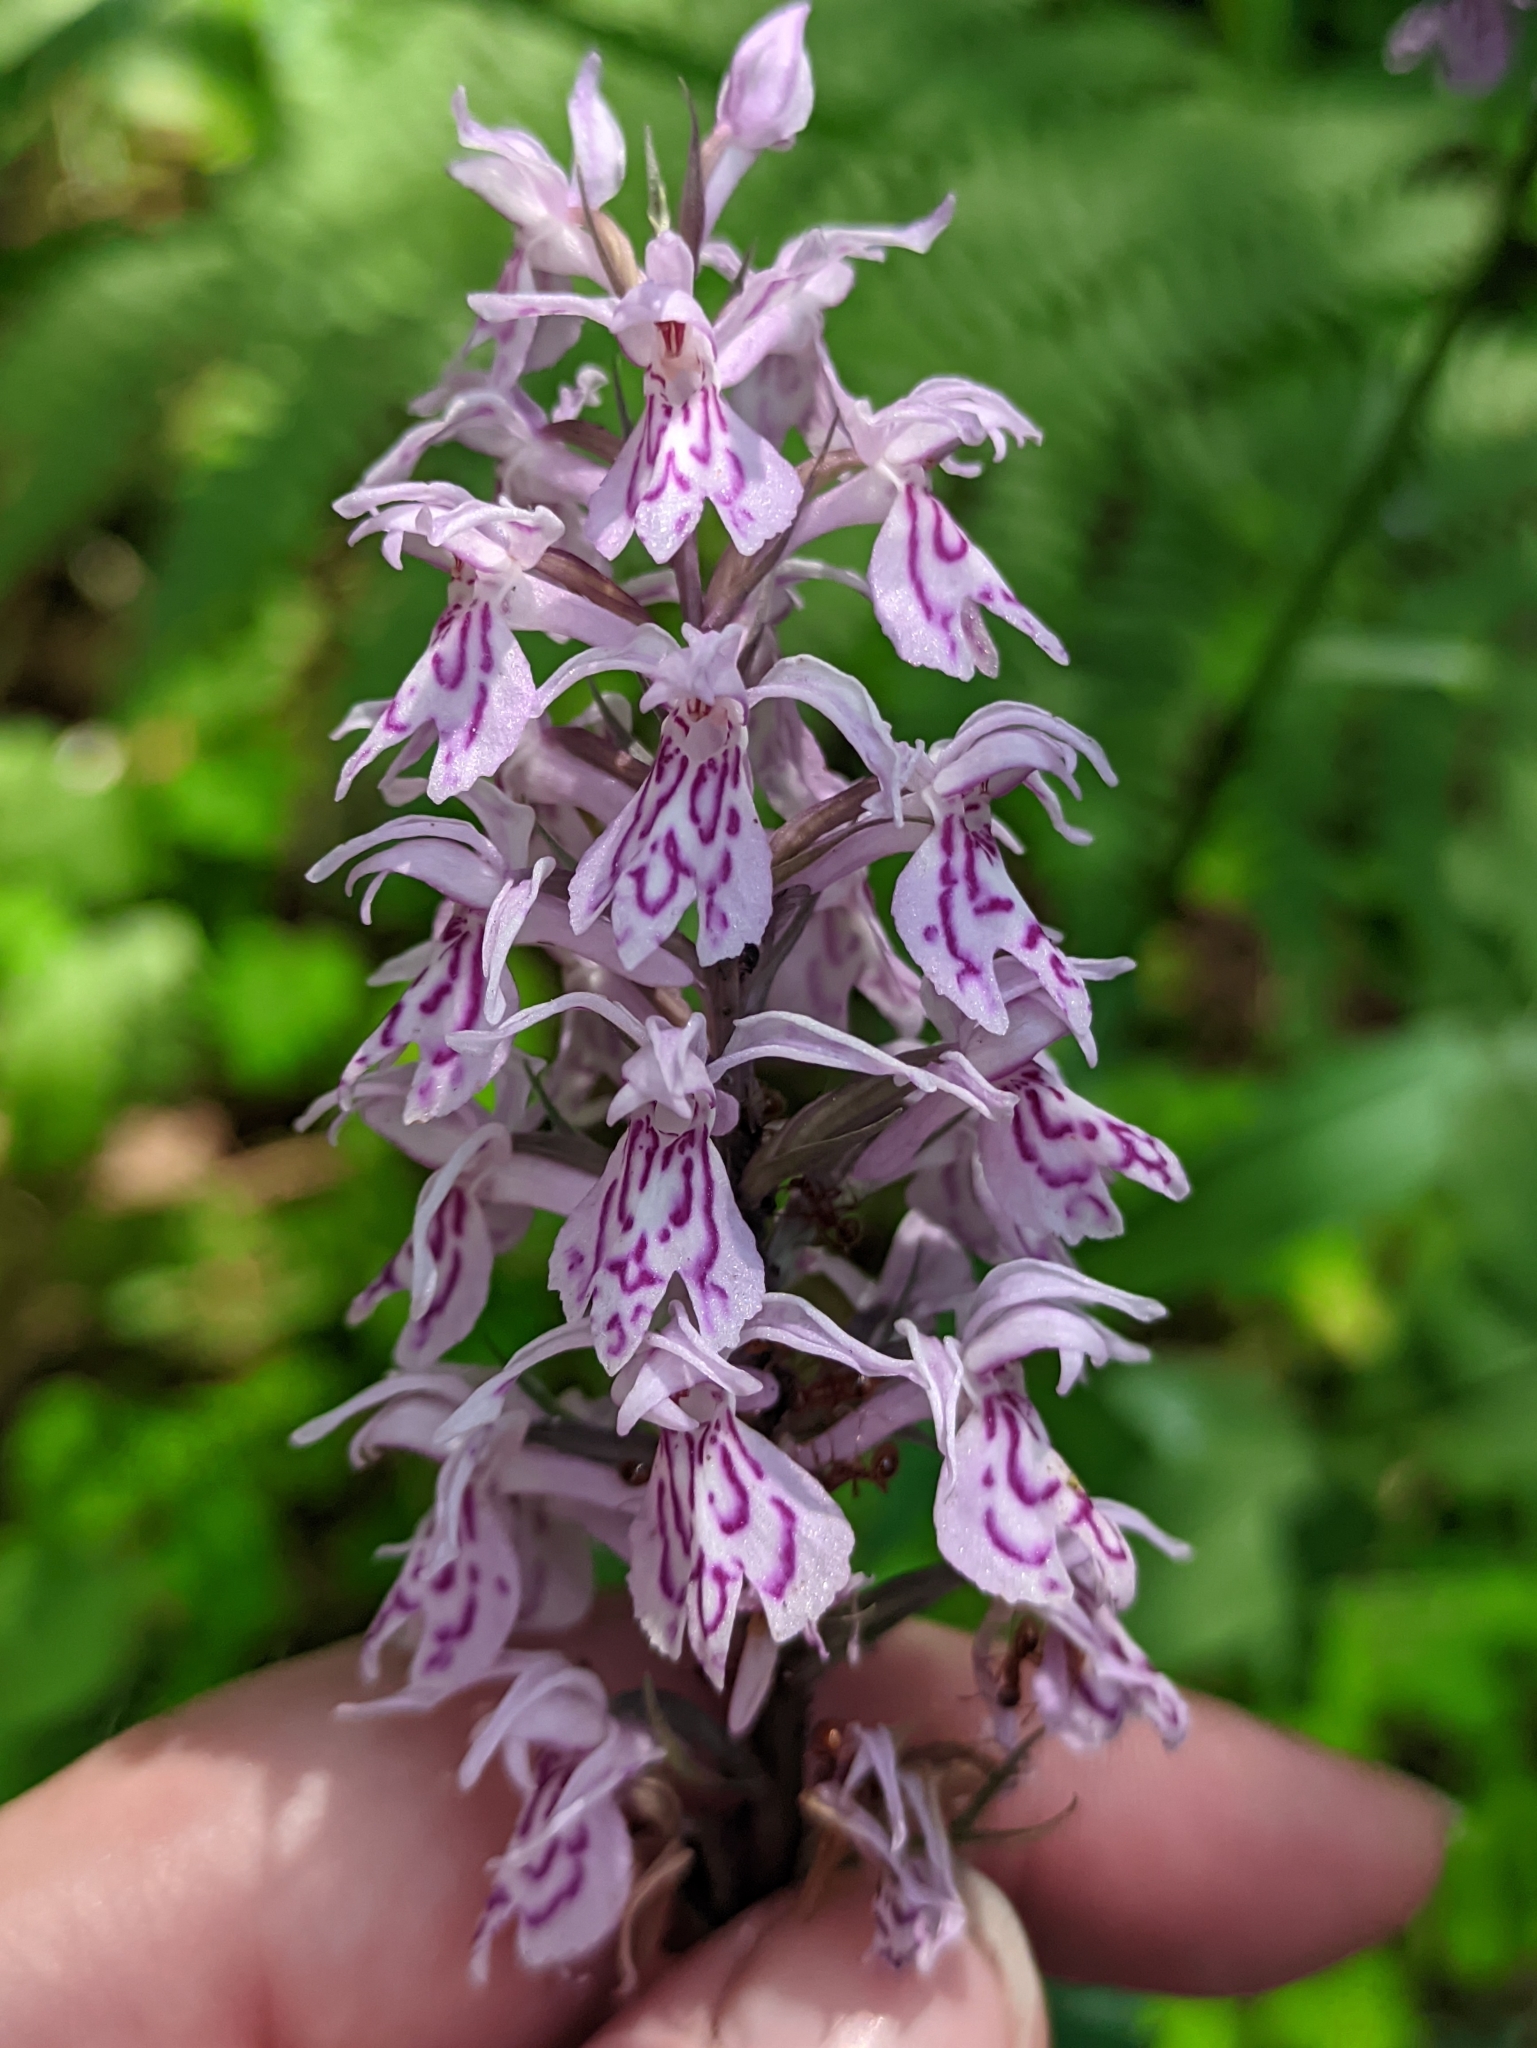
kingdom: Plantae
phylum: Tracheophyta
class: Liliopsida
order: Asparagales
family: Orchidaceae
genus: Dactylorhiza
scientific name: Dactylorhiza maculata
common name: Heath spotted-orchid
